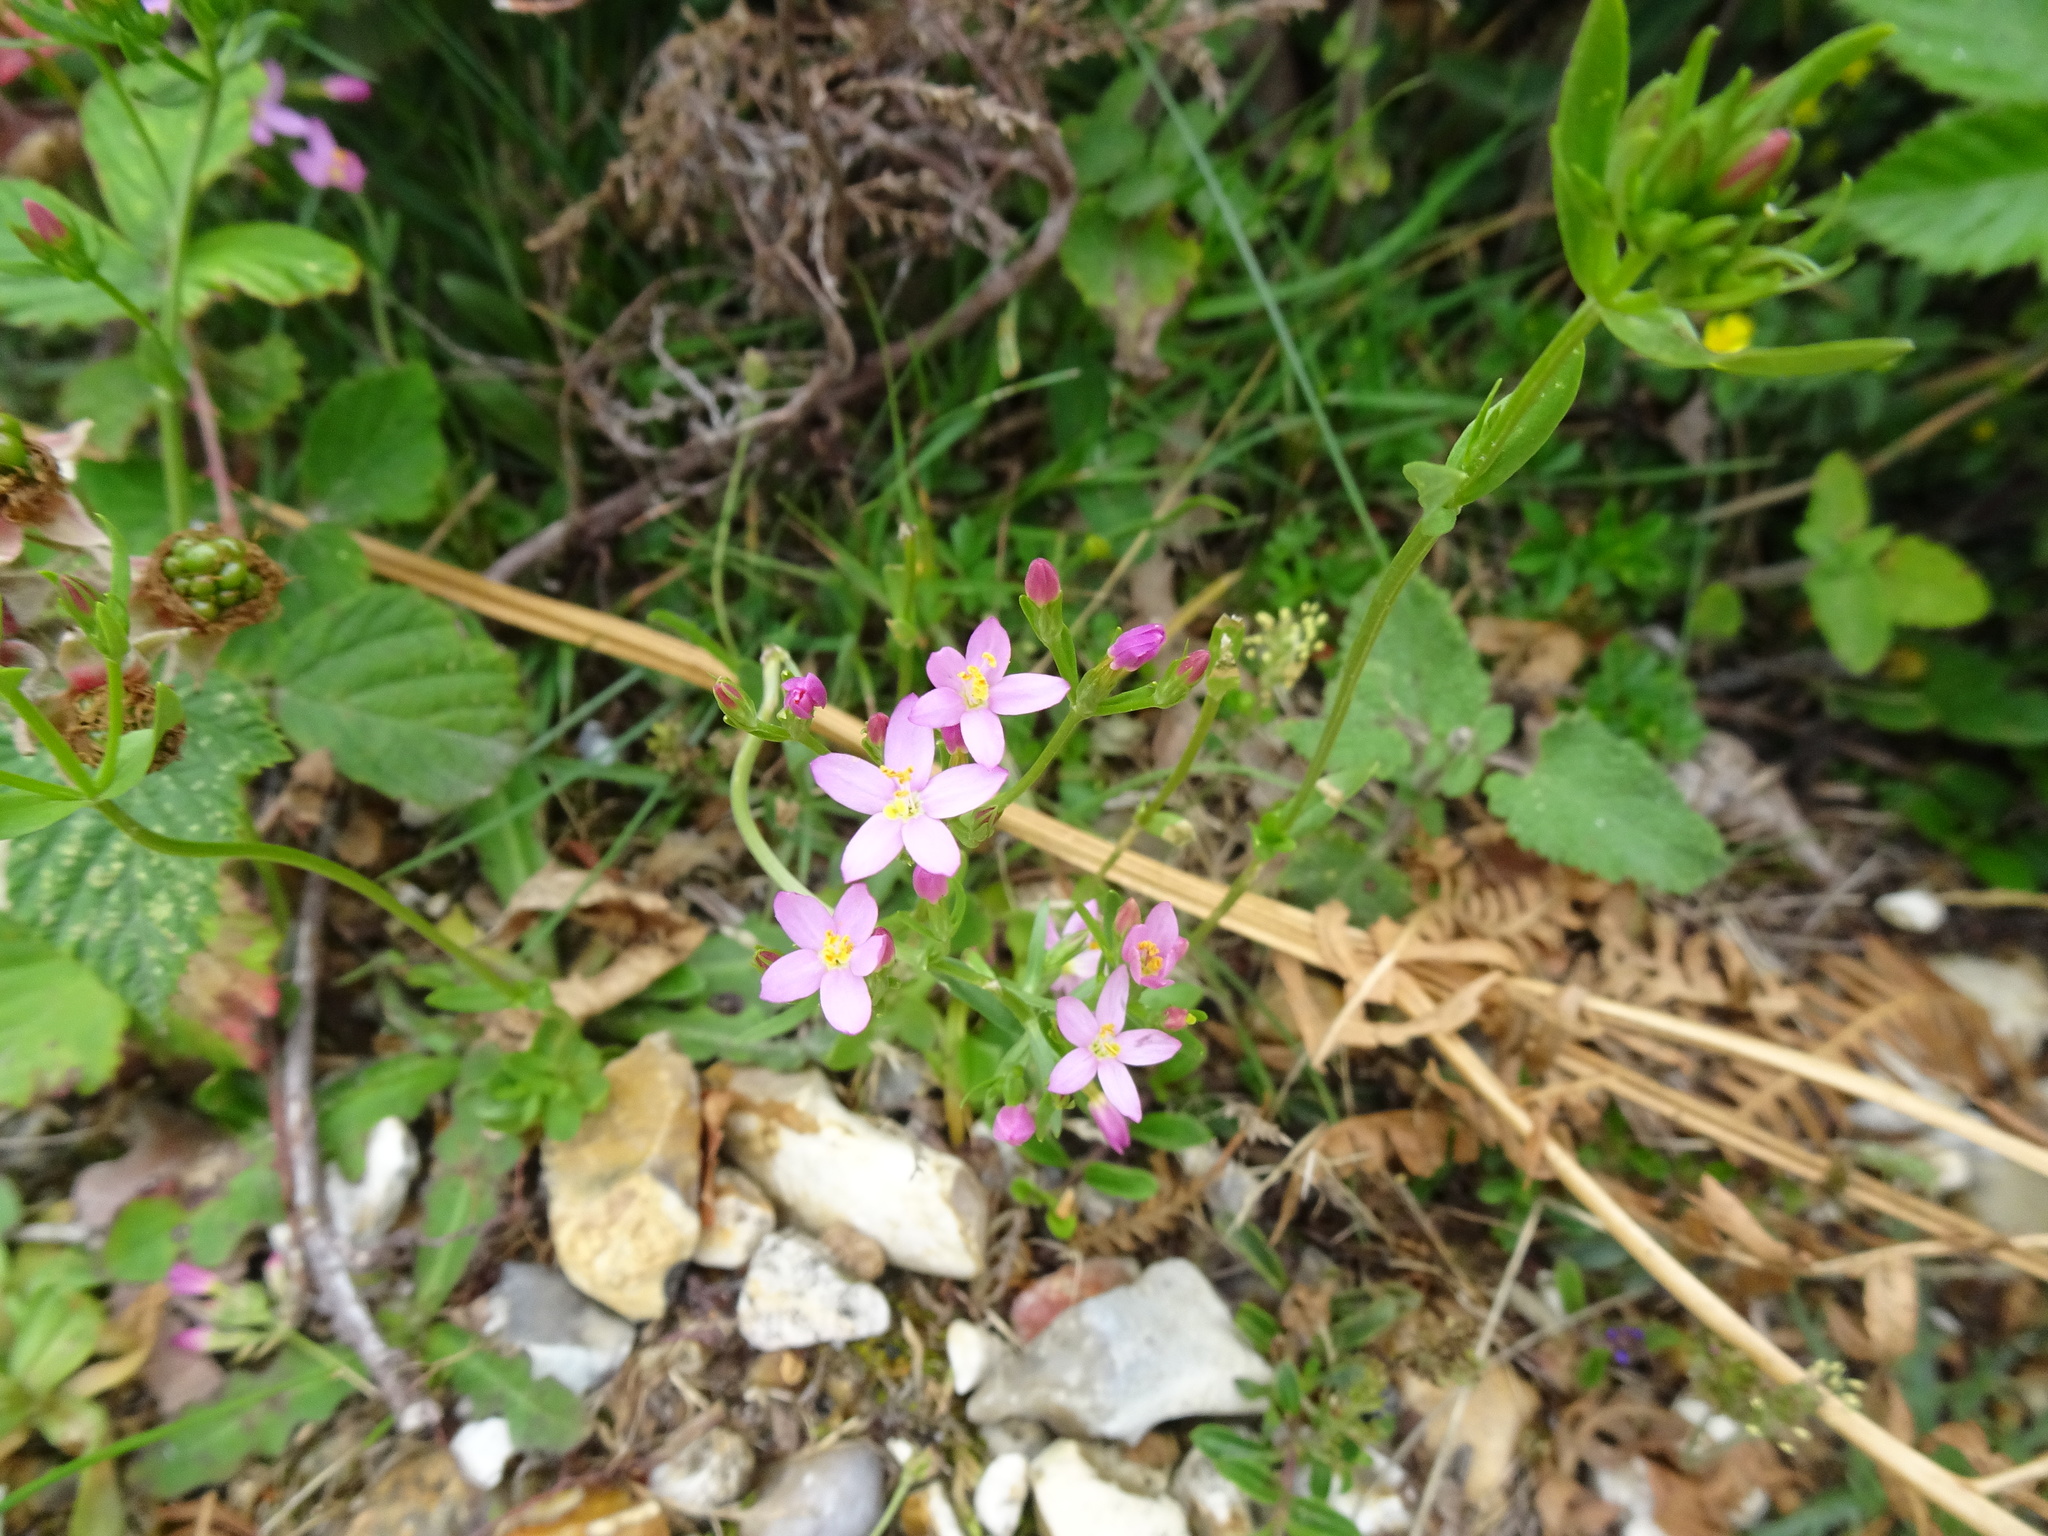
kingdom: Plantae
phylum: Tracheophyta
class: Magnoliopsida
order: Gentianales
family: Gentianaceae
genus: Centaurium
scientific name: Centaurium erythraea
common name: Common centaury
